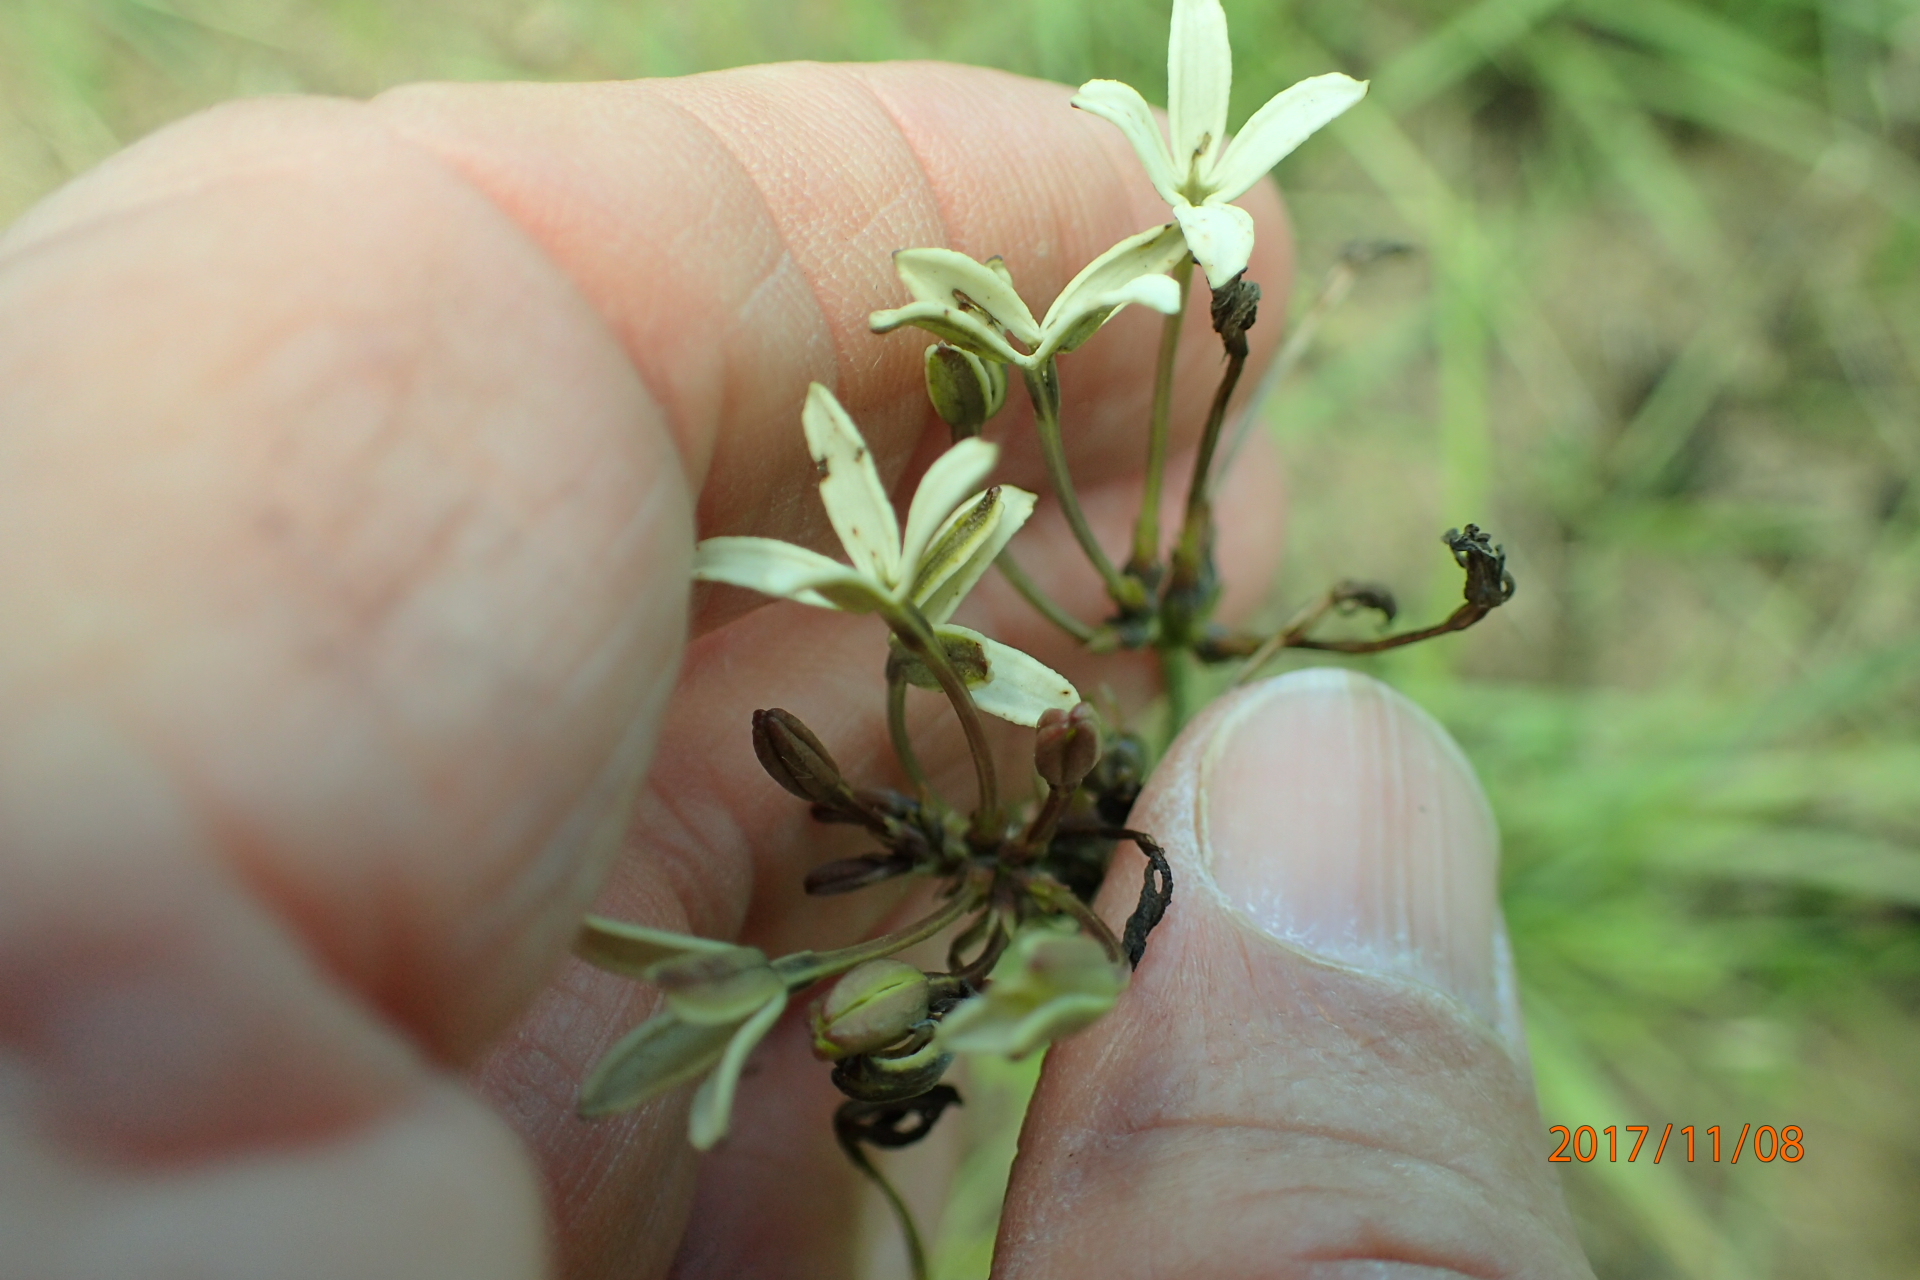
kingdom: Plantae
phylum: Tracheophyta
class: Magnoliopsida
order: Gentianales
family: Rubiaceae
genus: Kohautia
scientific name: Kohautia amatymbica
